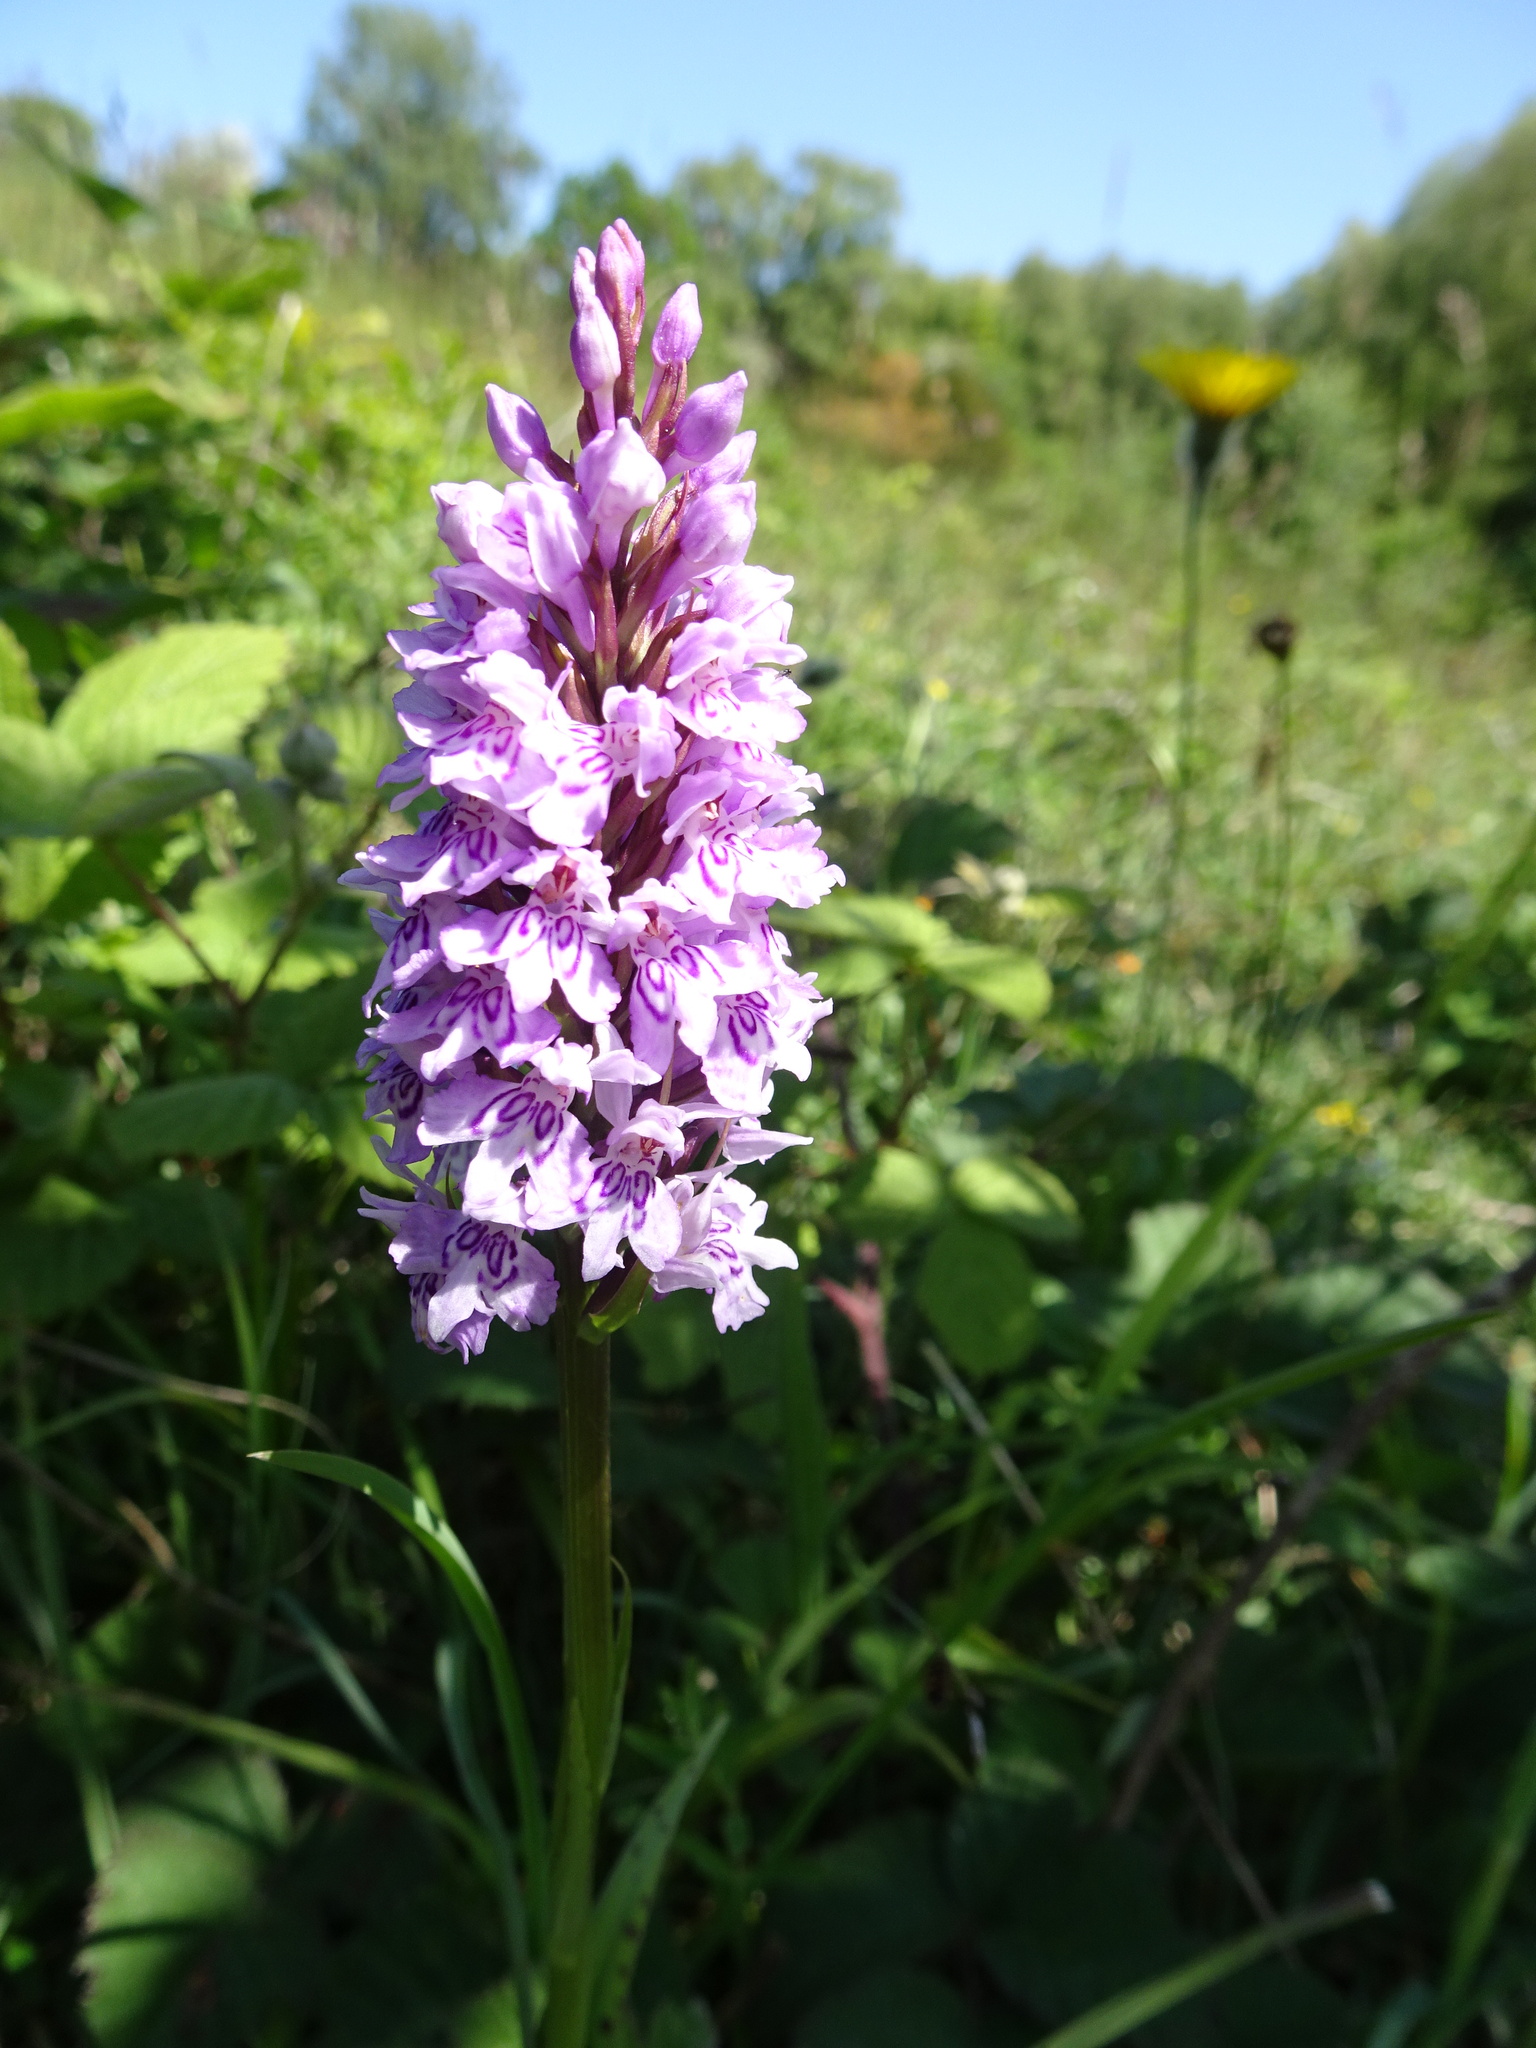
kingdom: Plantae
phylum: Tracheophyta
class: Liliopsida
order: Asparagales
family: Orchidaceae
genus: Dactylorhiza
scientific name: Dactylorhiza maculata
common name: Heath spotted-orchid
